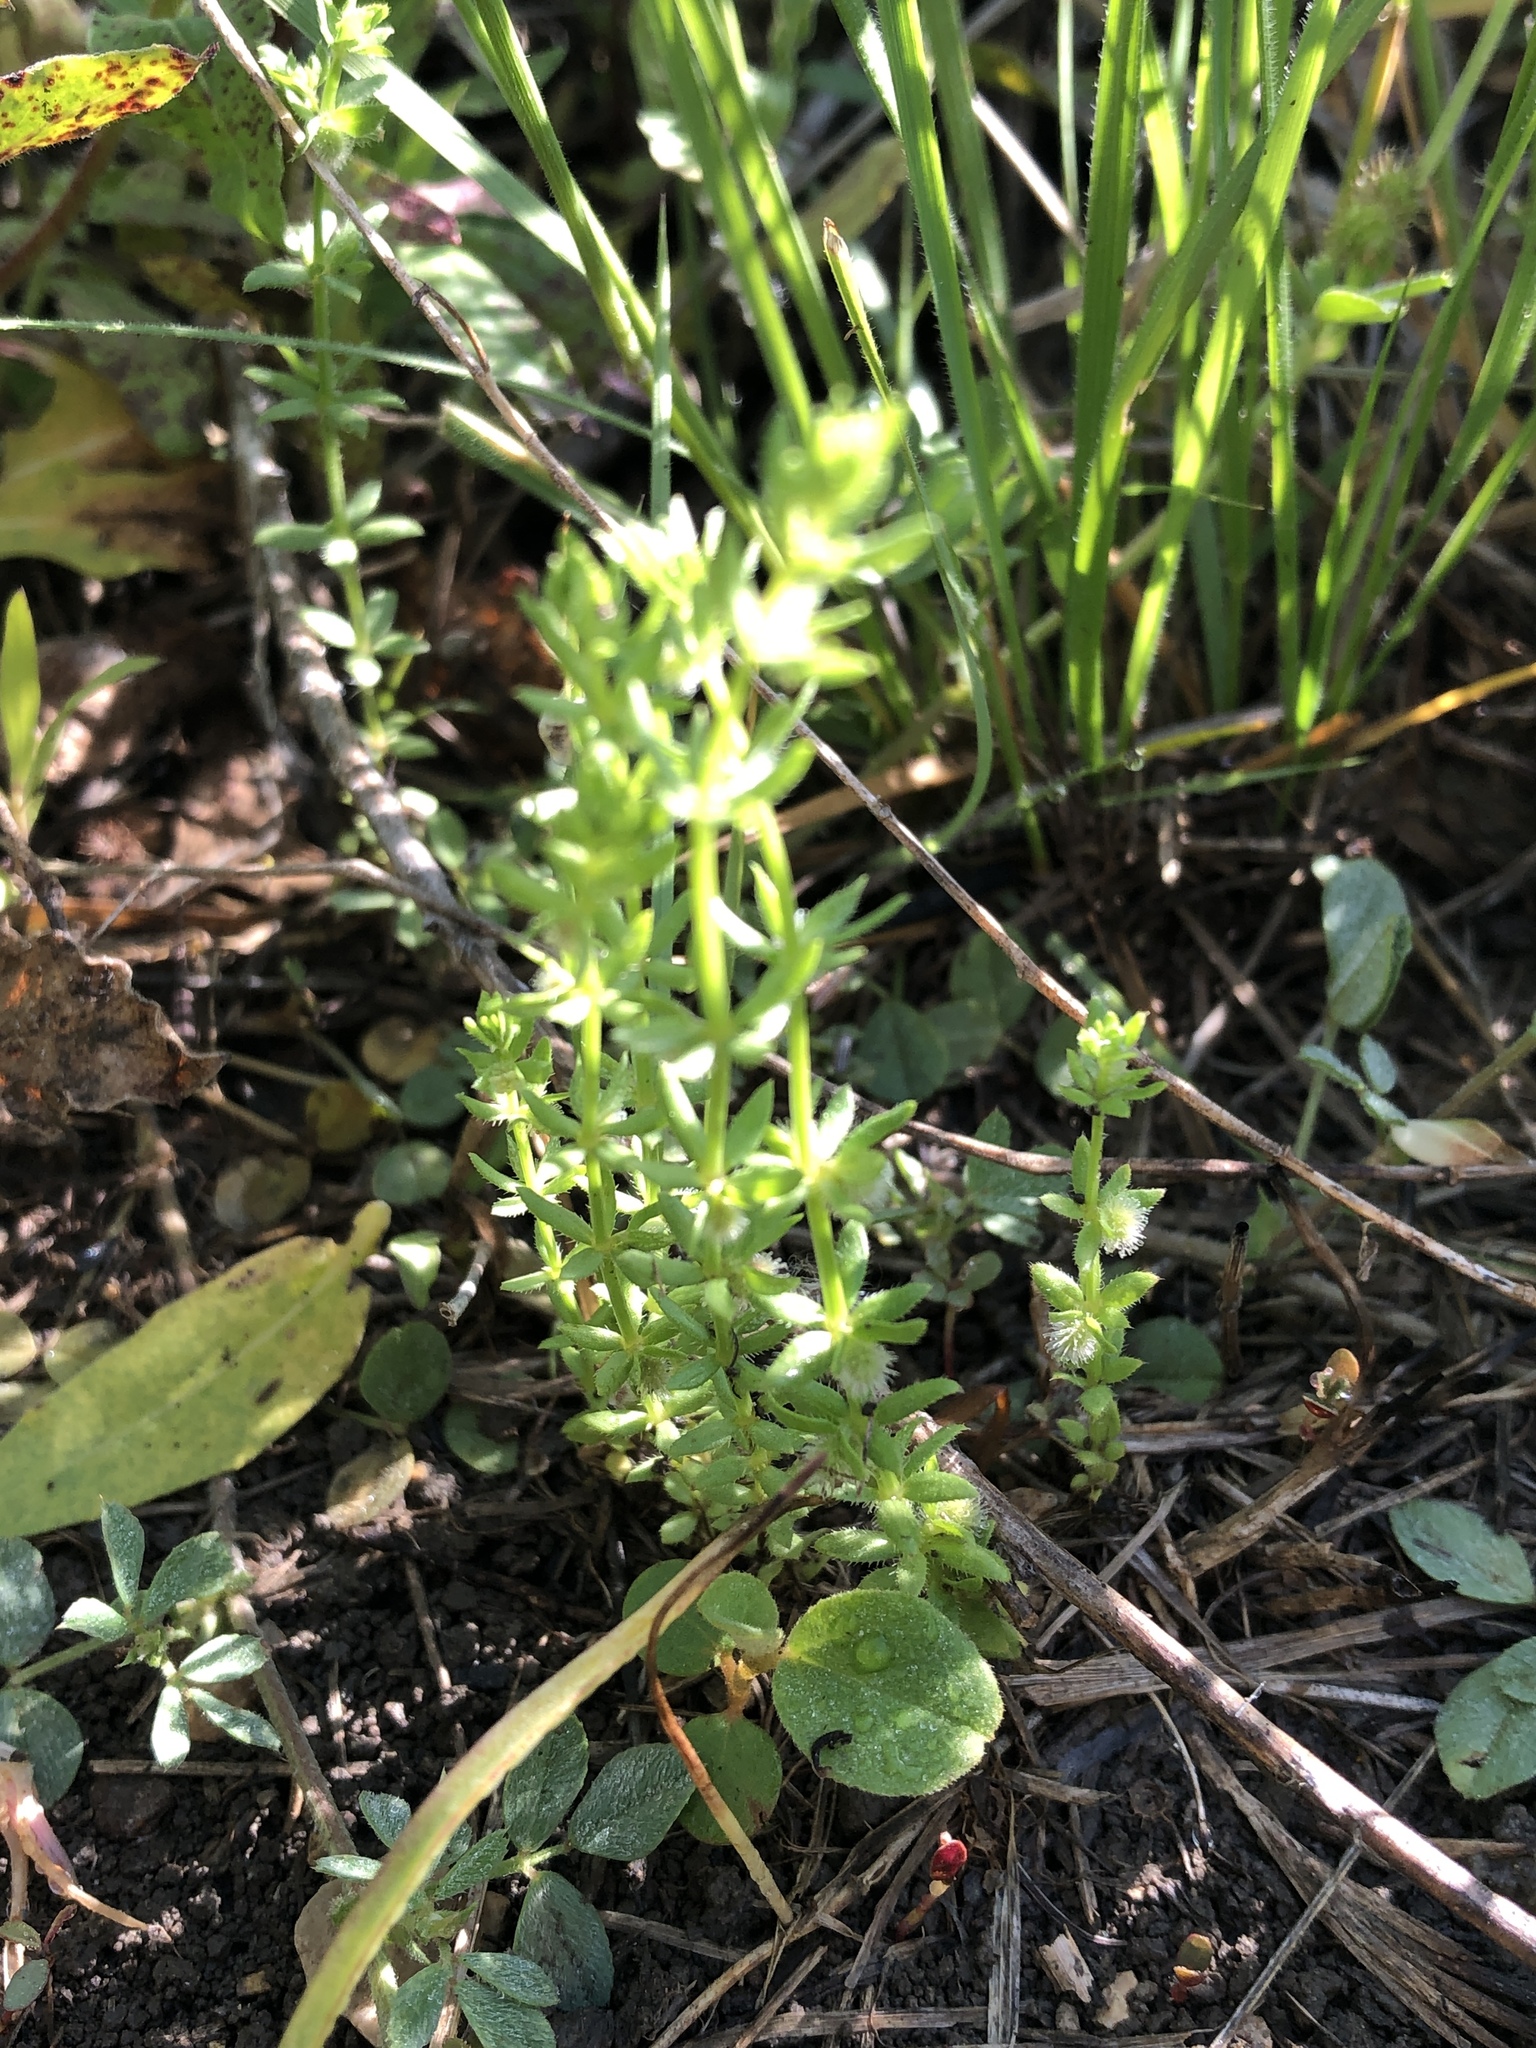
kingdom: Plantae
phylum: Tracheophyta
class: Magnoliopsida
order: Gentianales
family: Rubiaceae
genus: Galium
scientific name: Galium virgatum
